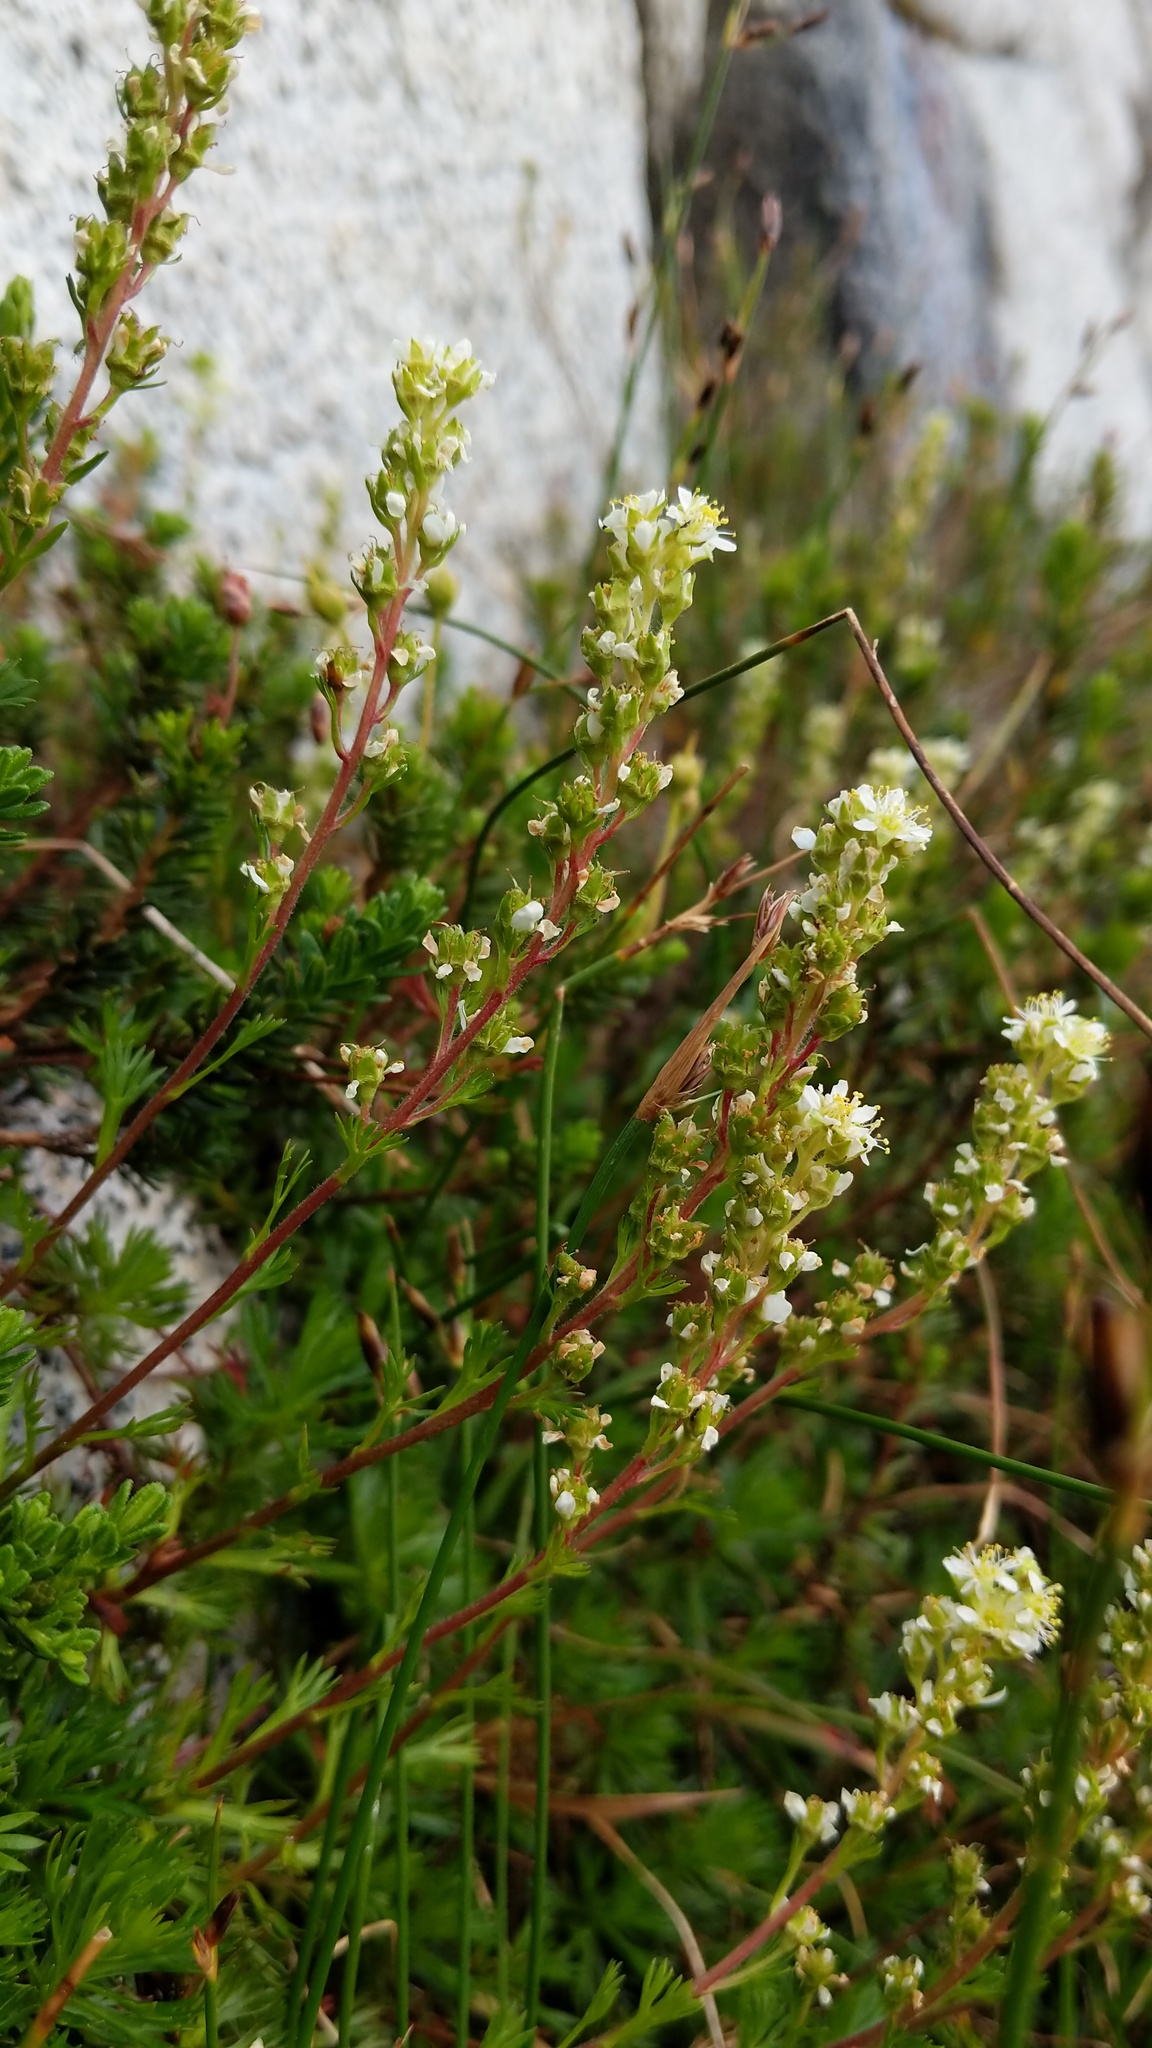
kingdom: Plantae
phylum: Tracheophyta
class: Magnoliopsida
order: Rosales
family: Rosaceae
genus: Luetkea
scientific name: Luetkea pectinata
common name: Partridgefoot
